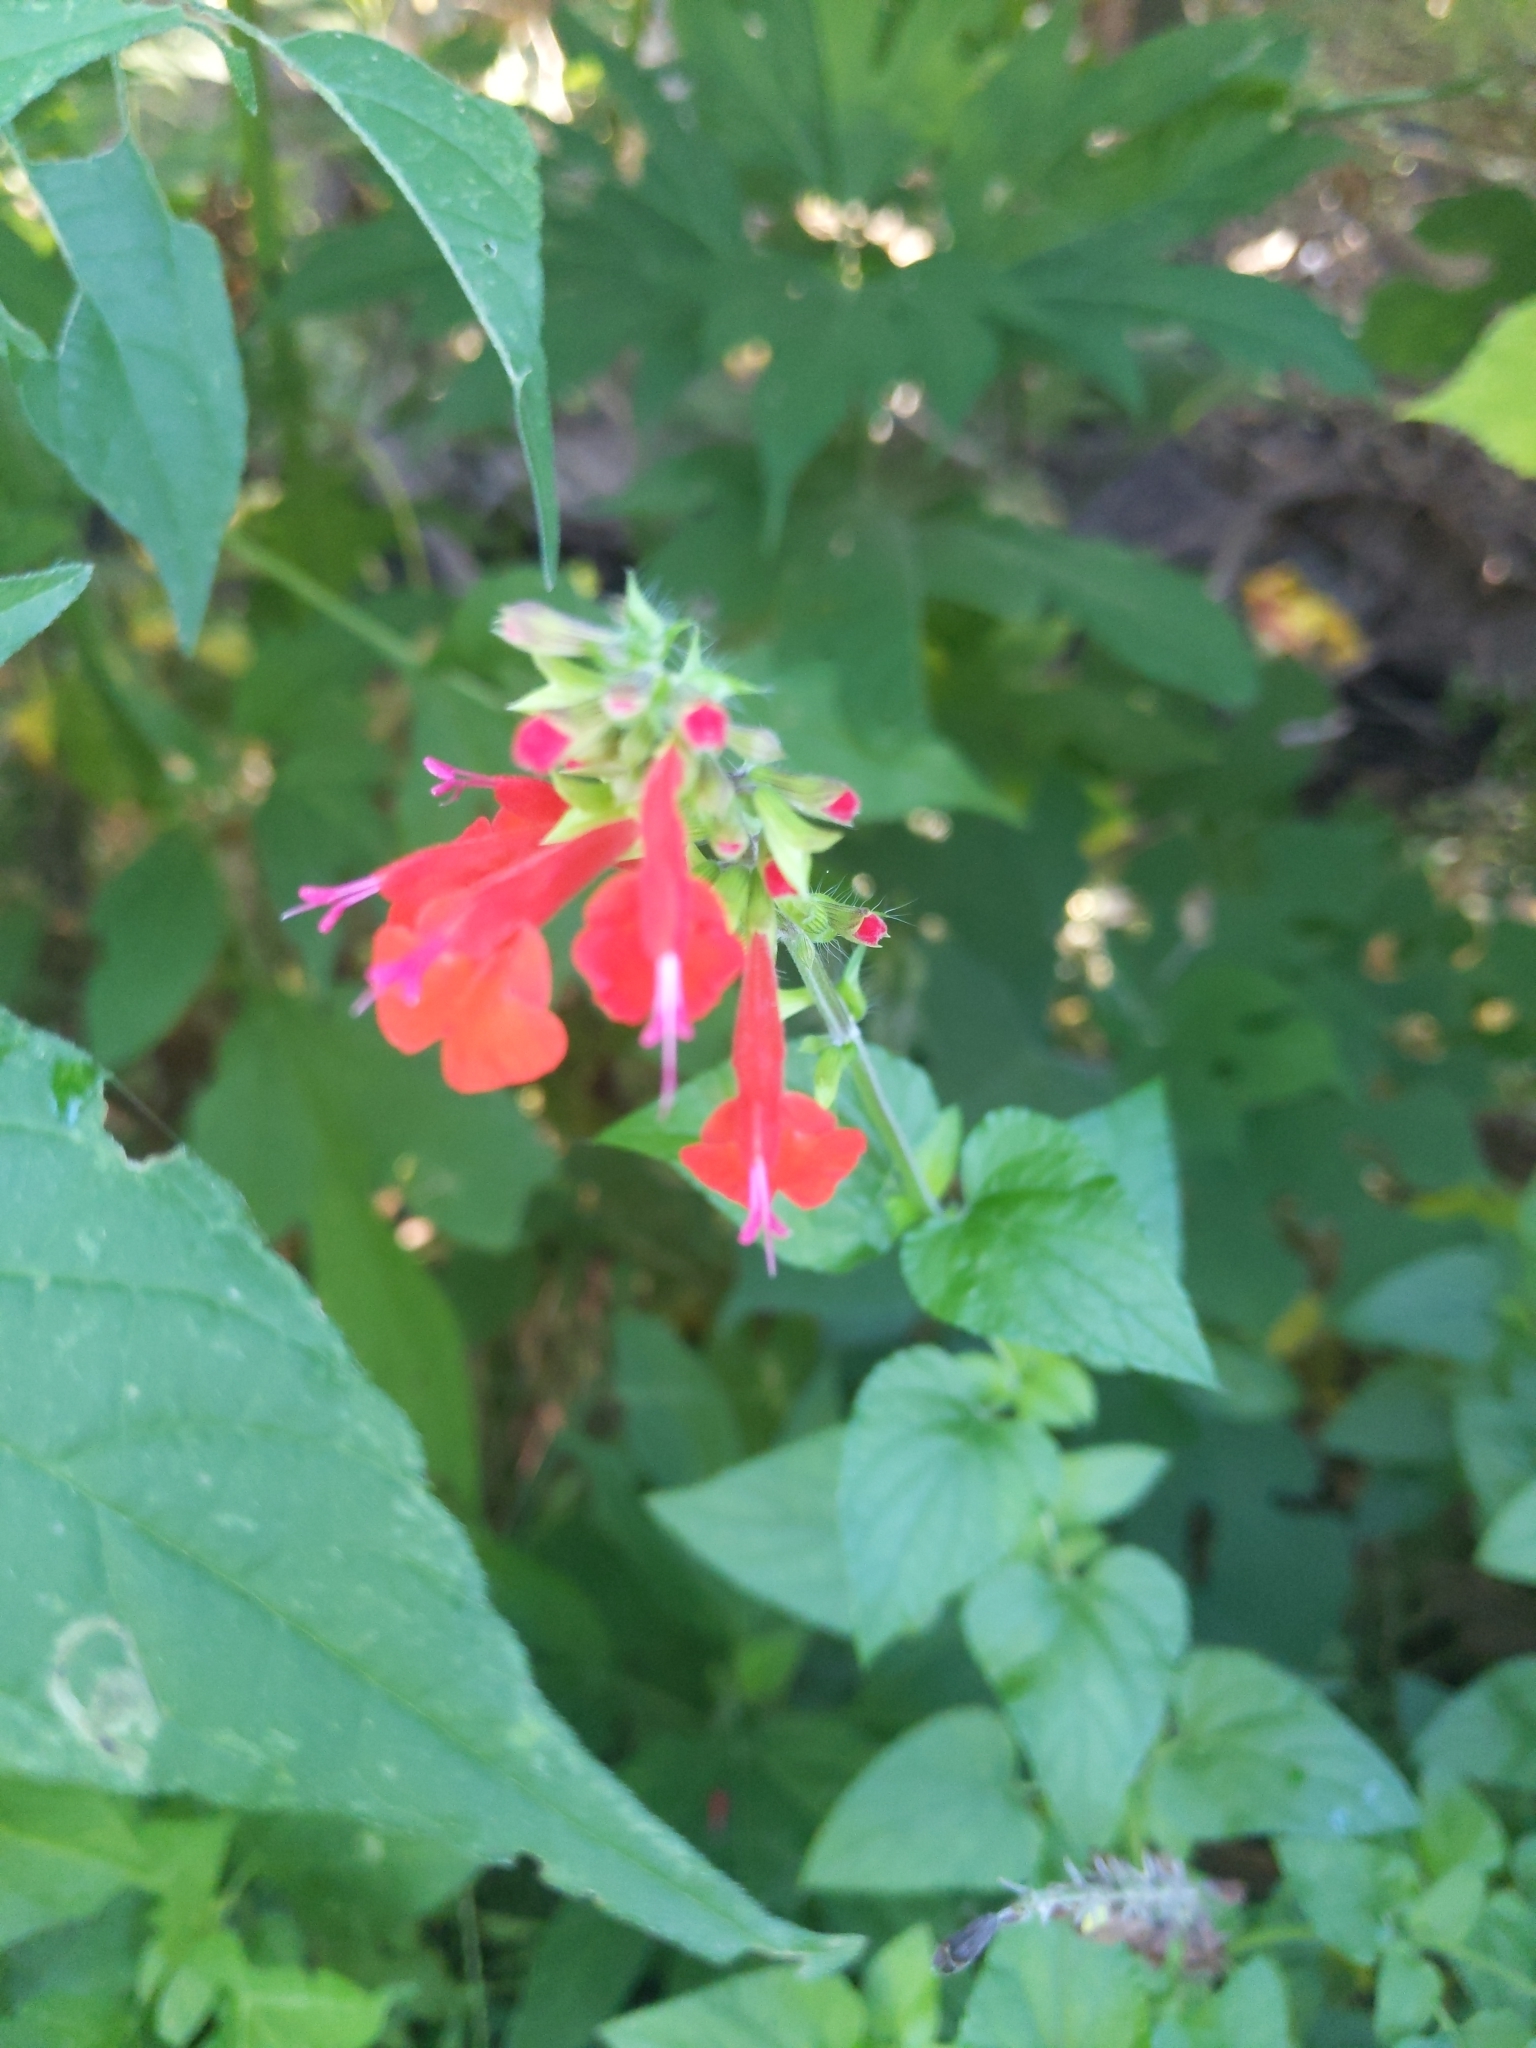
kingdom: Plantae
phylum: Tracheophyta
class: Magnoliopsida
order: Lamiales
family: Lamiaceae
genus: Salvia
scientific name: Salvia coccinea
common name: Blood sage
